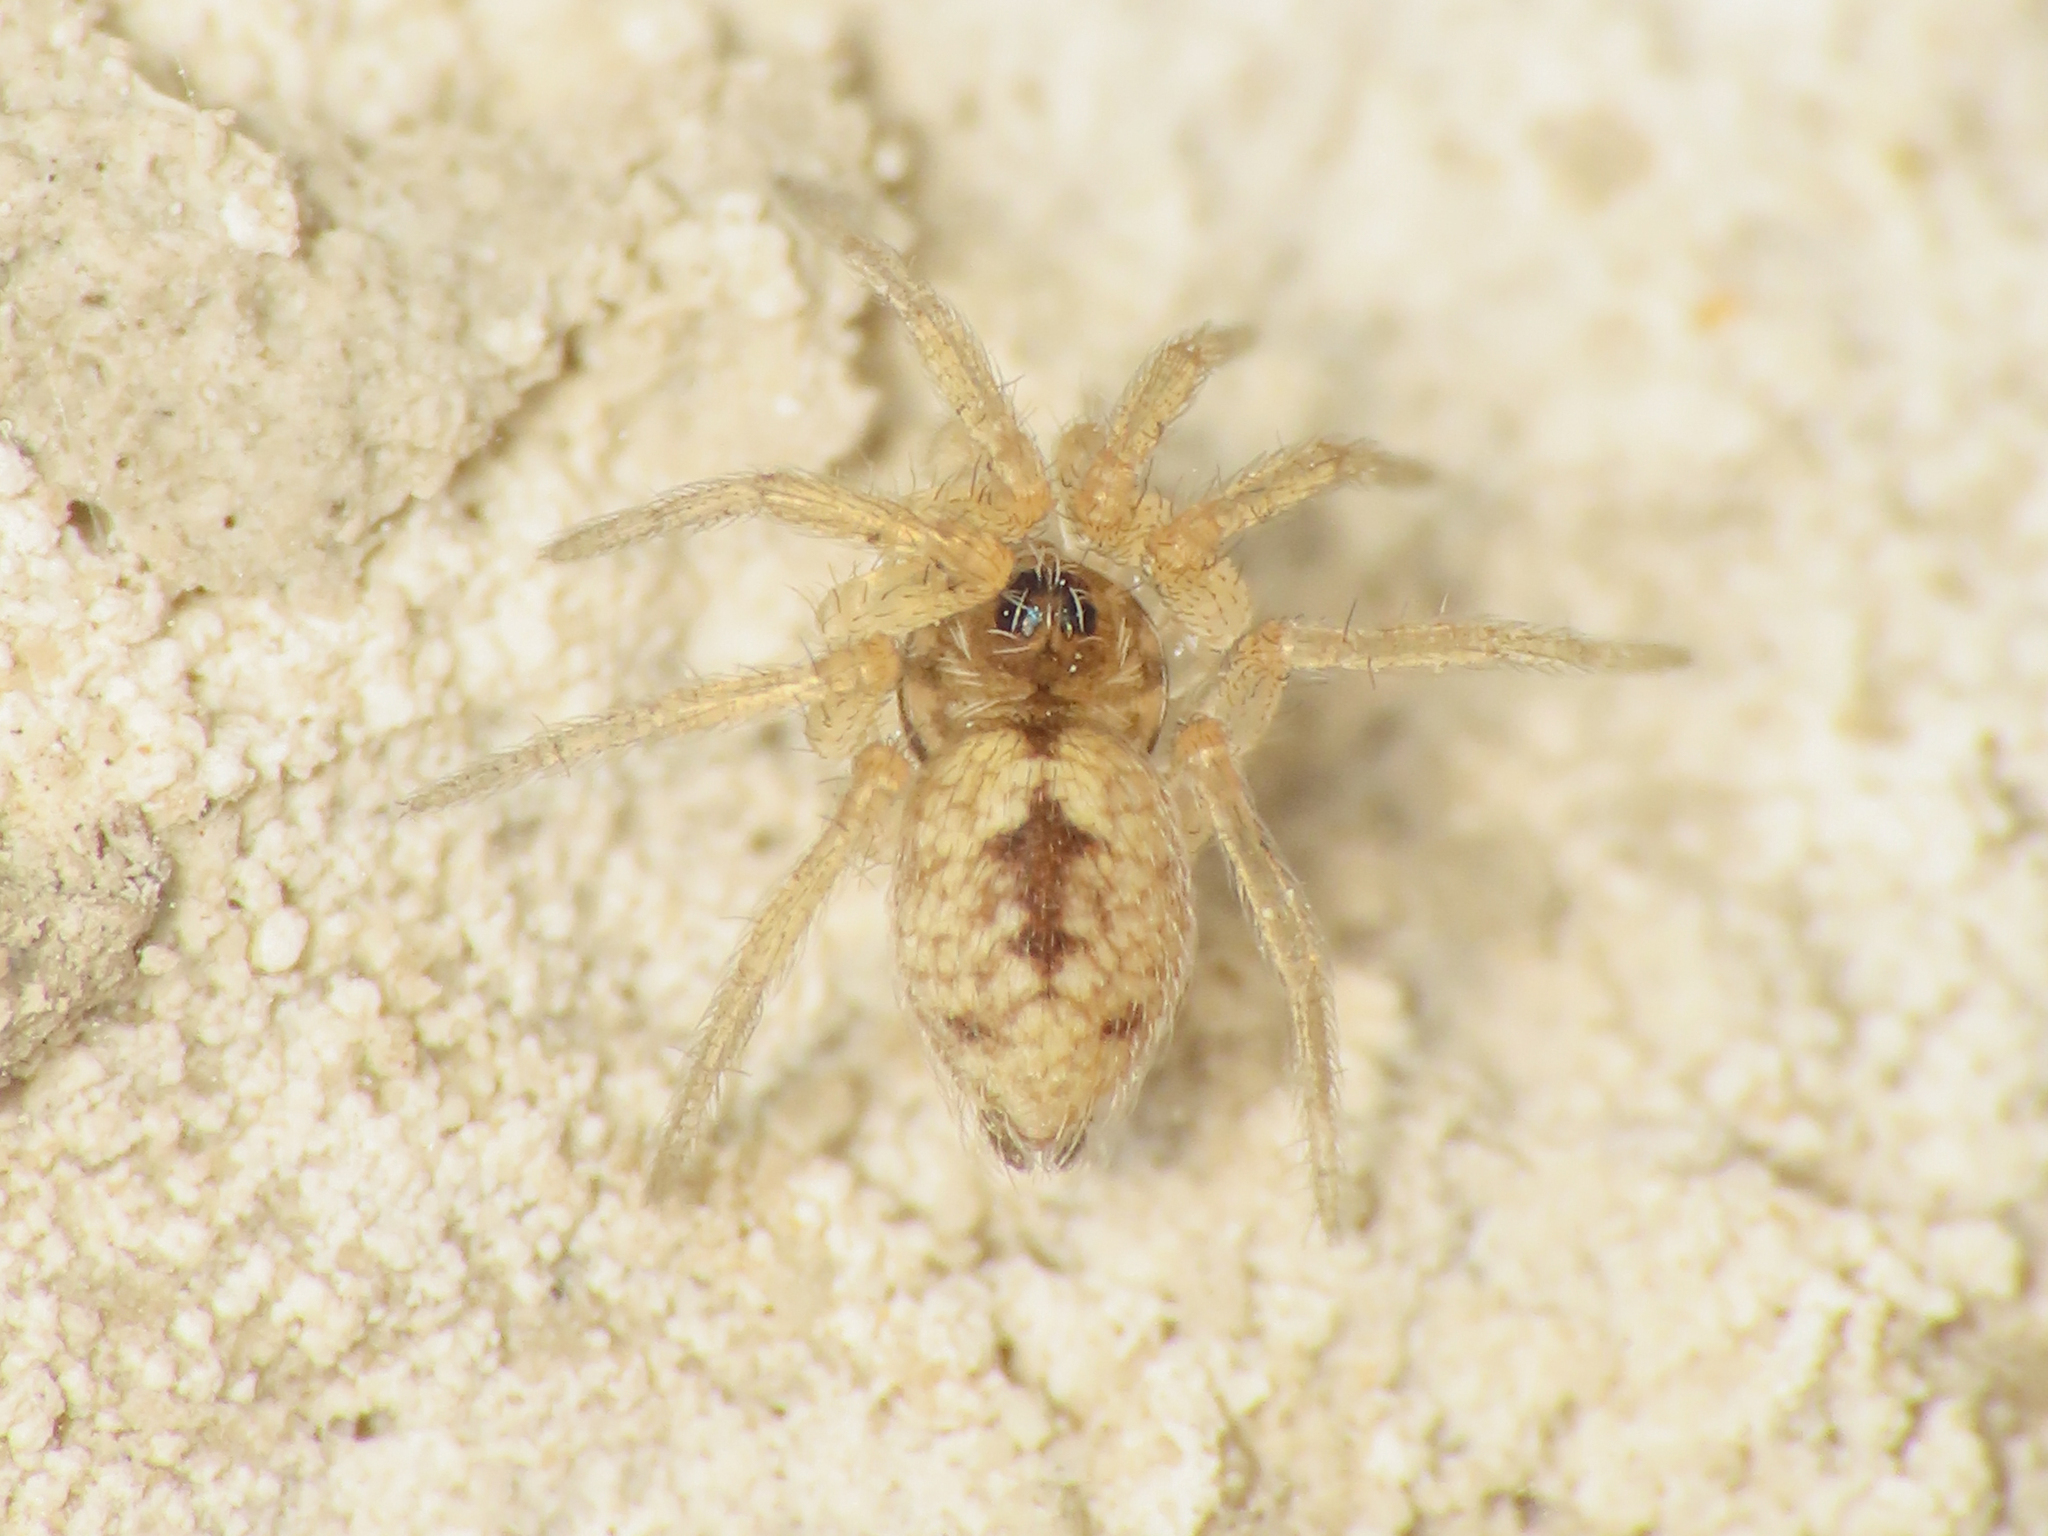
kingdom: Animalia
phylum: Arthropoda
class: Arachnida
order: Araneae
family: Oecobiidae
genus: Oecobius
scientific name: Oecobius maculatus
